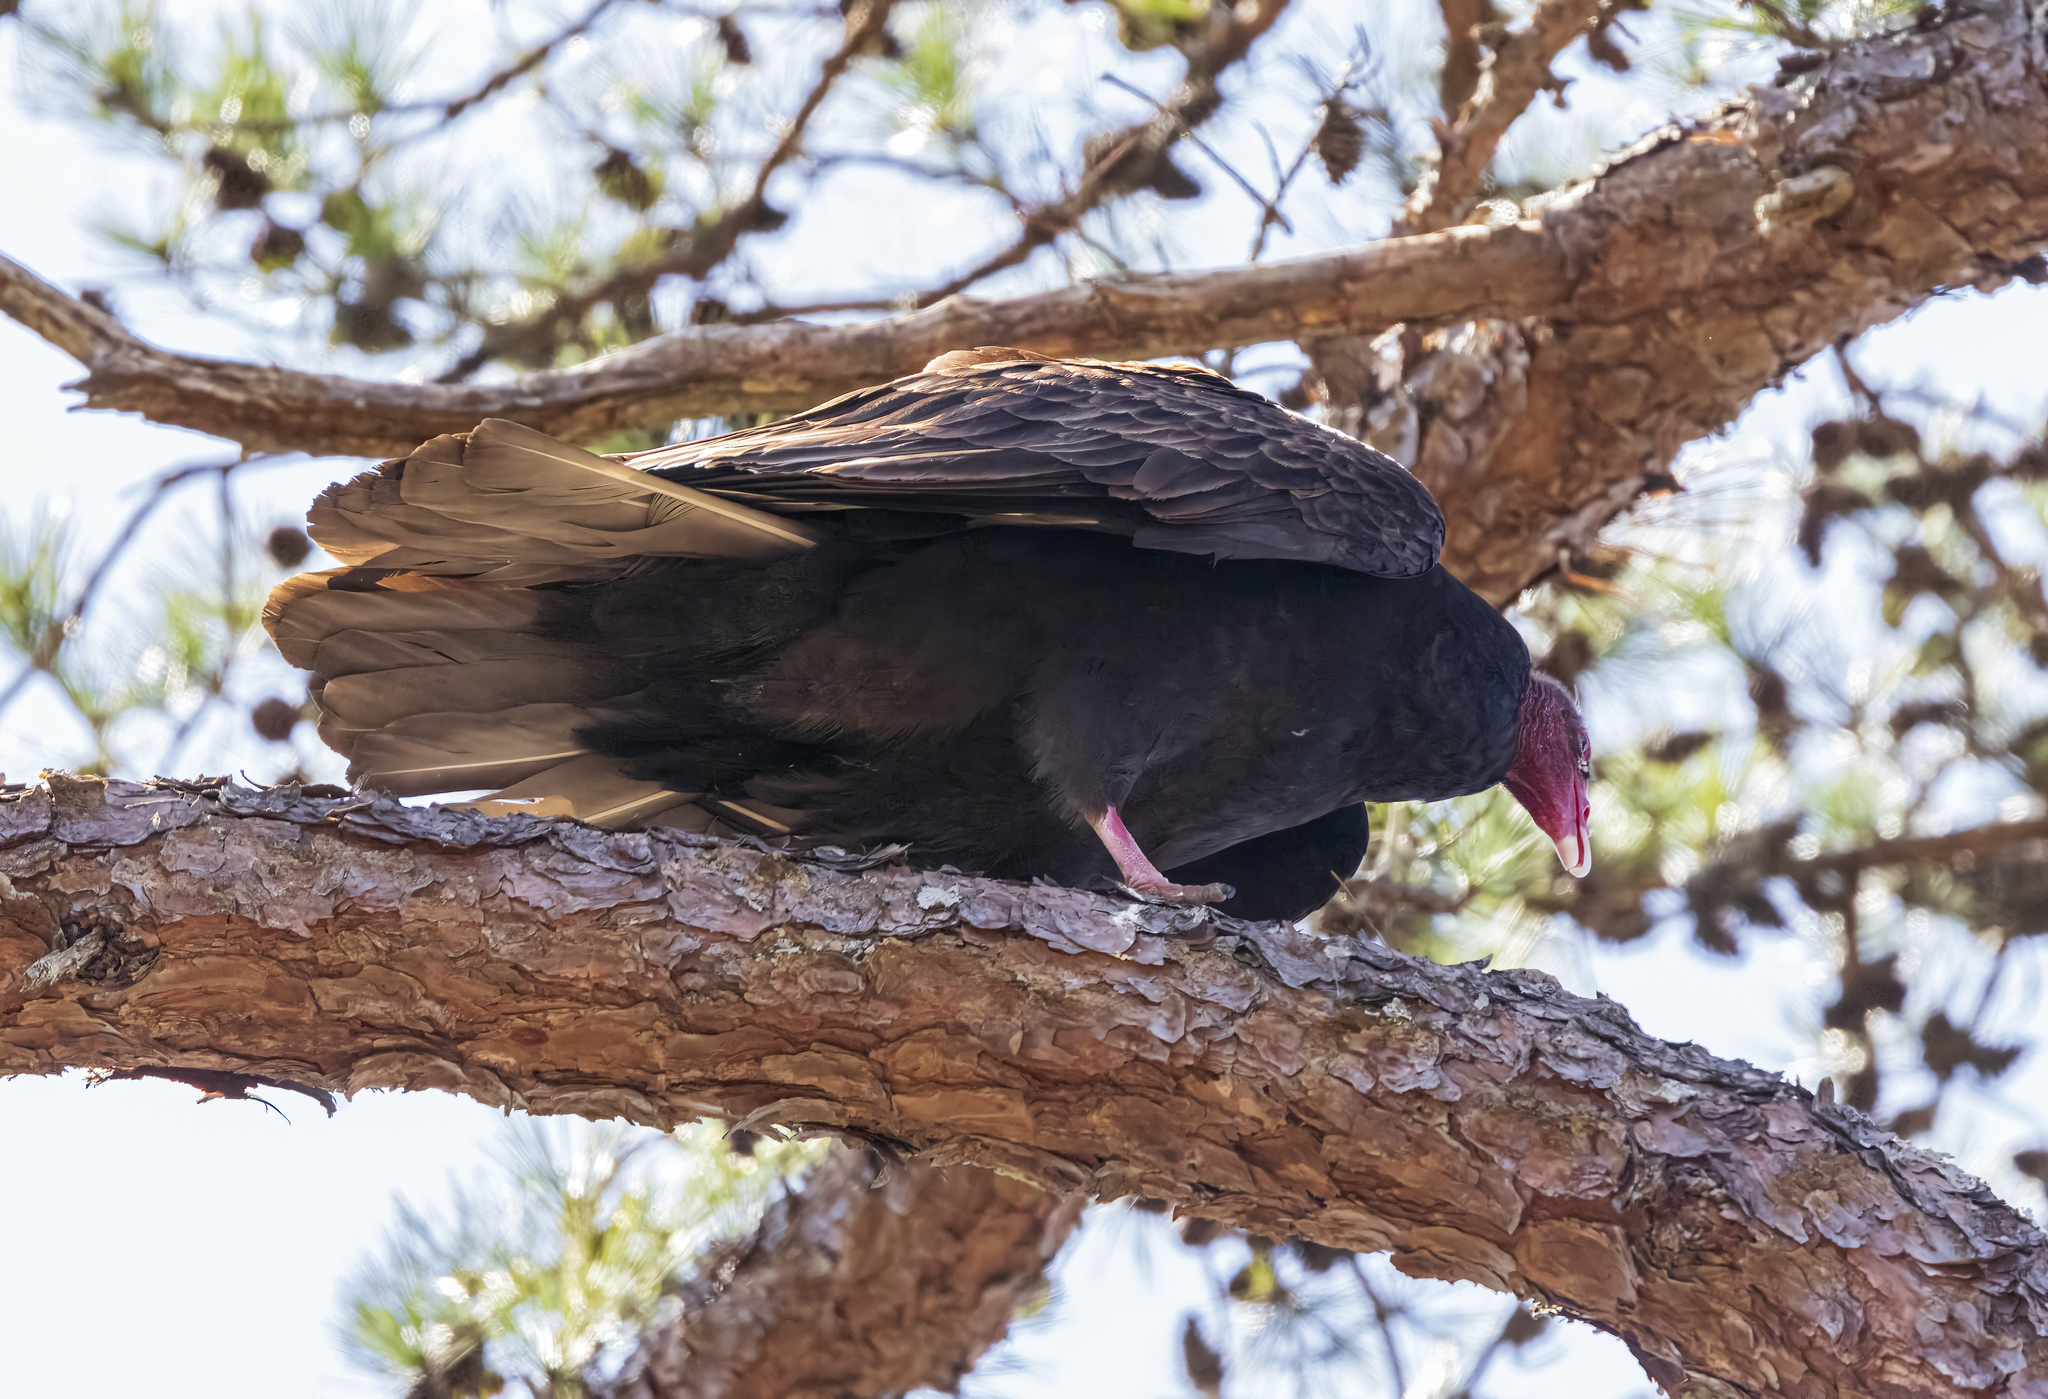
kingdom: Animalia
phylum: Chordata
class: Aves
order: Accipitriformes
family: Cathartidae
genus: Cathartes
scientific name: Cathartes aura
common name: Turkey vulture
